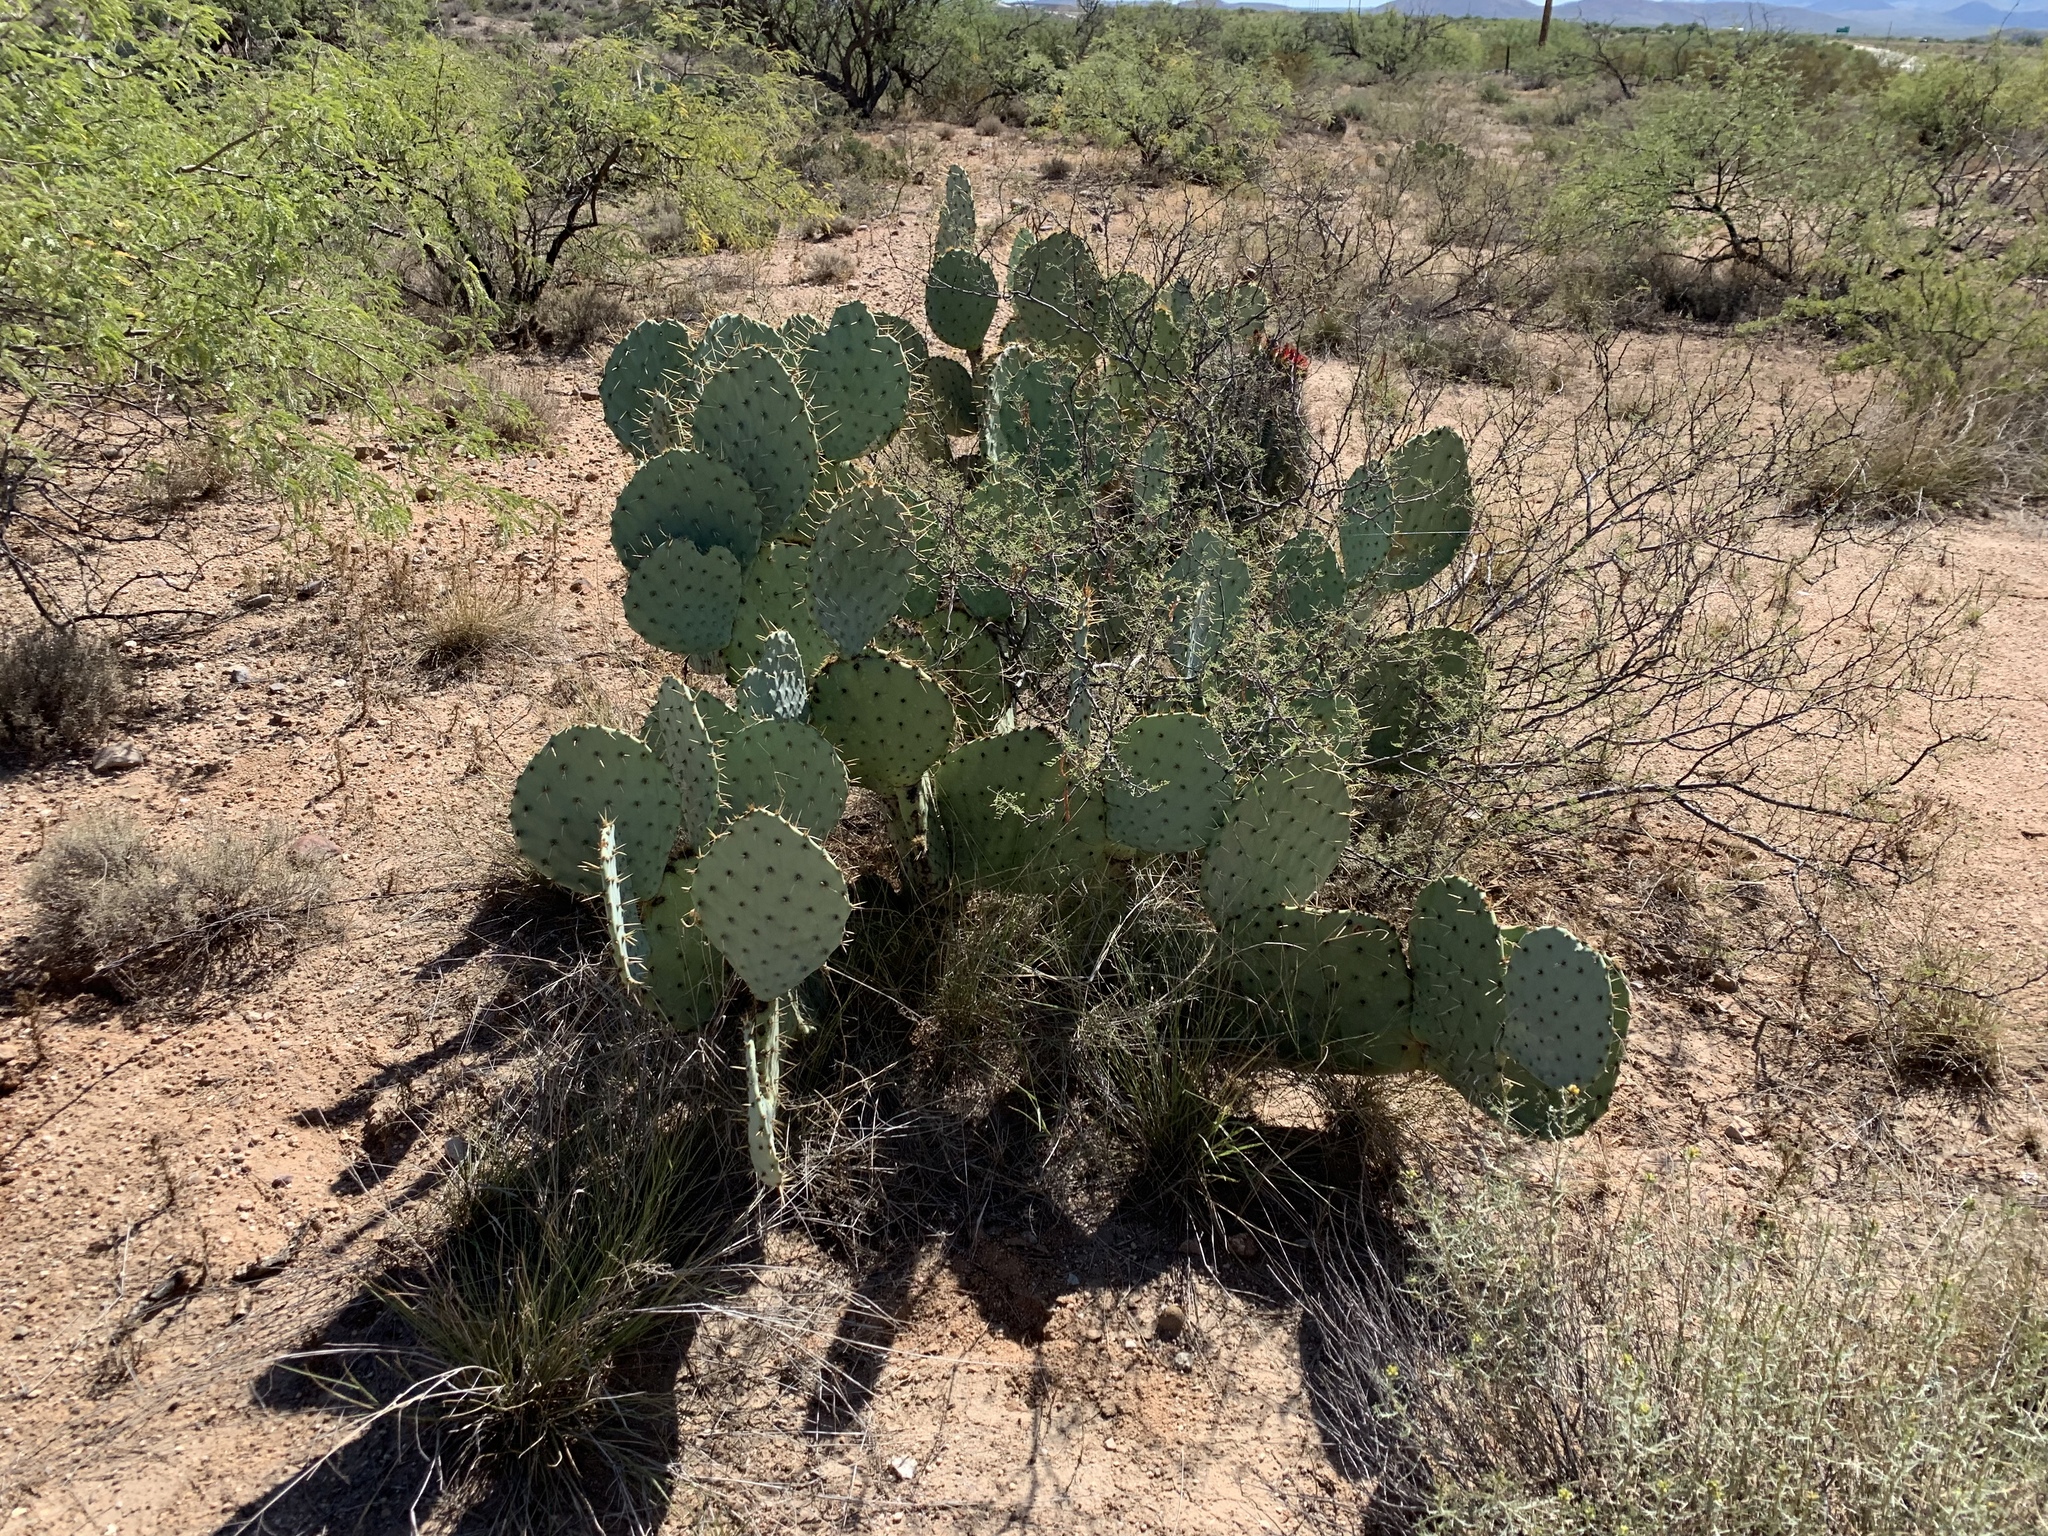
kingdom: Plantae
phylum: Tracheophyta
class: Magnoliopsida
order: Caryophyllales
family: Cactaceae
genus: Opuntia
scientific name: Opuntia engelmannii
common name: Cactus-apple
